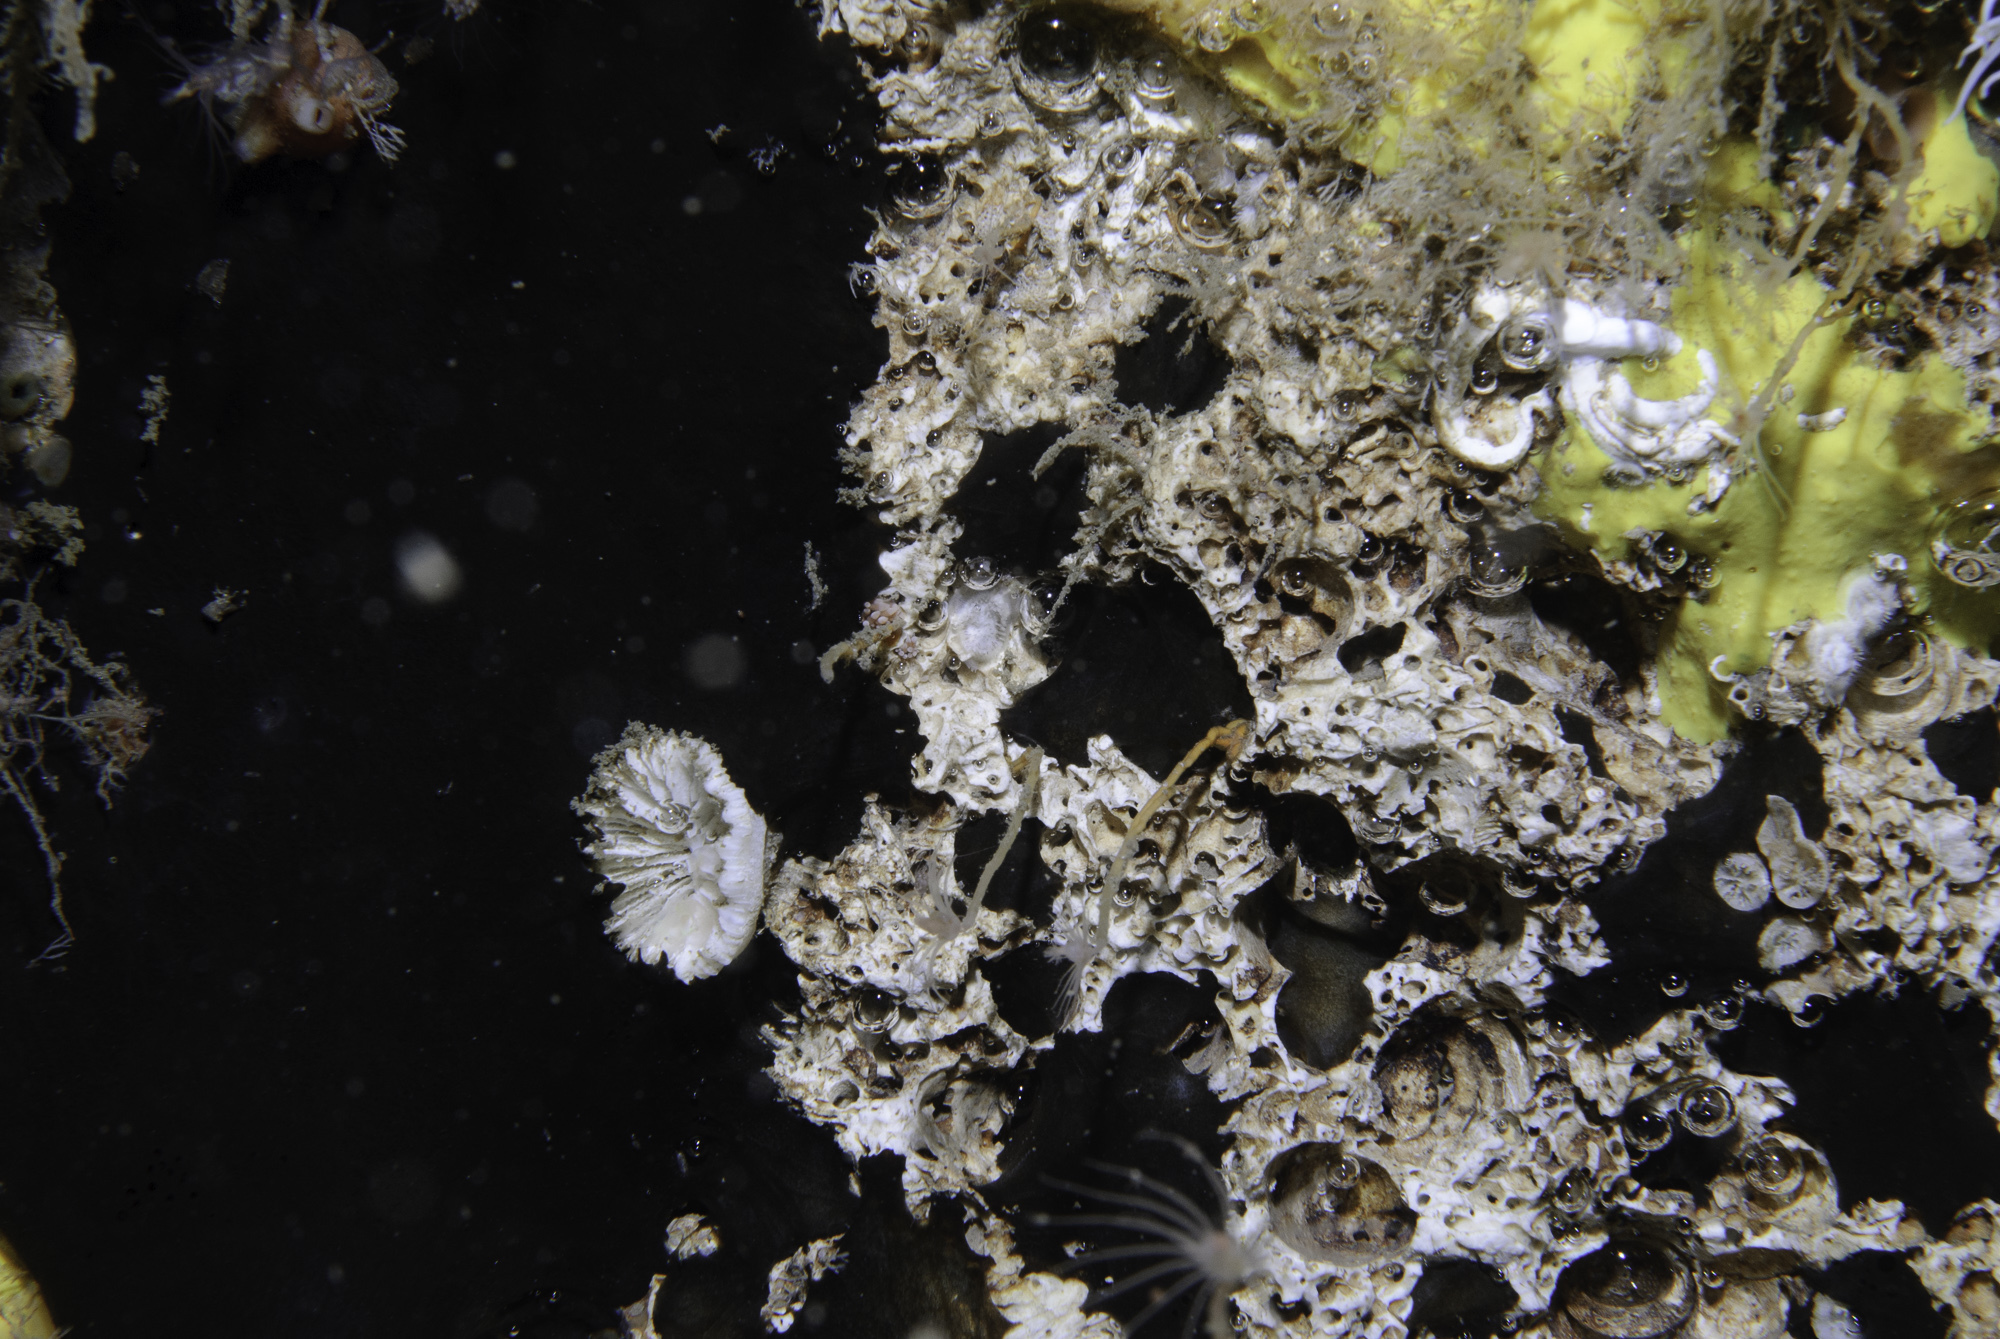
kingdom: Animalia
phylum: Porifera
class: Demospongiae
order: Tetractinellida
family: Ancorinidae
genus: Dercitus
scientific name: Dercitus bucklandi
